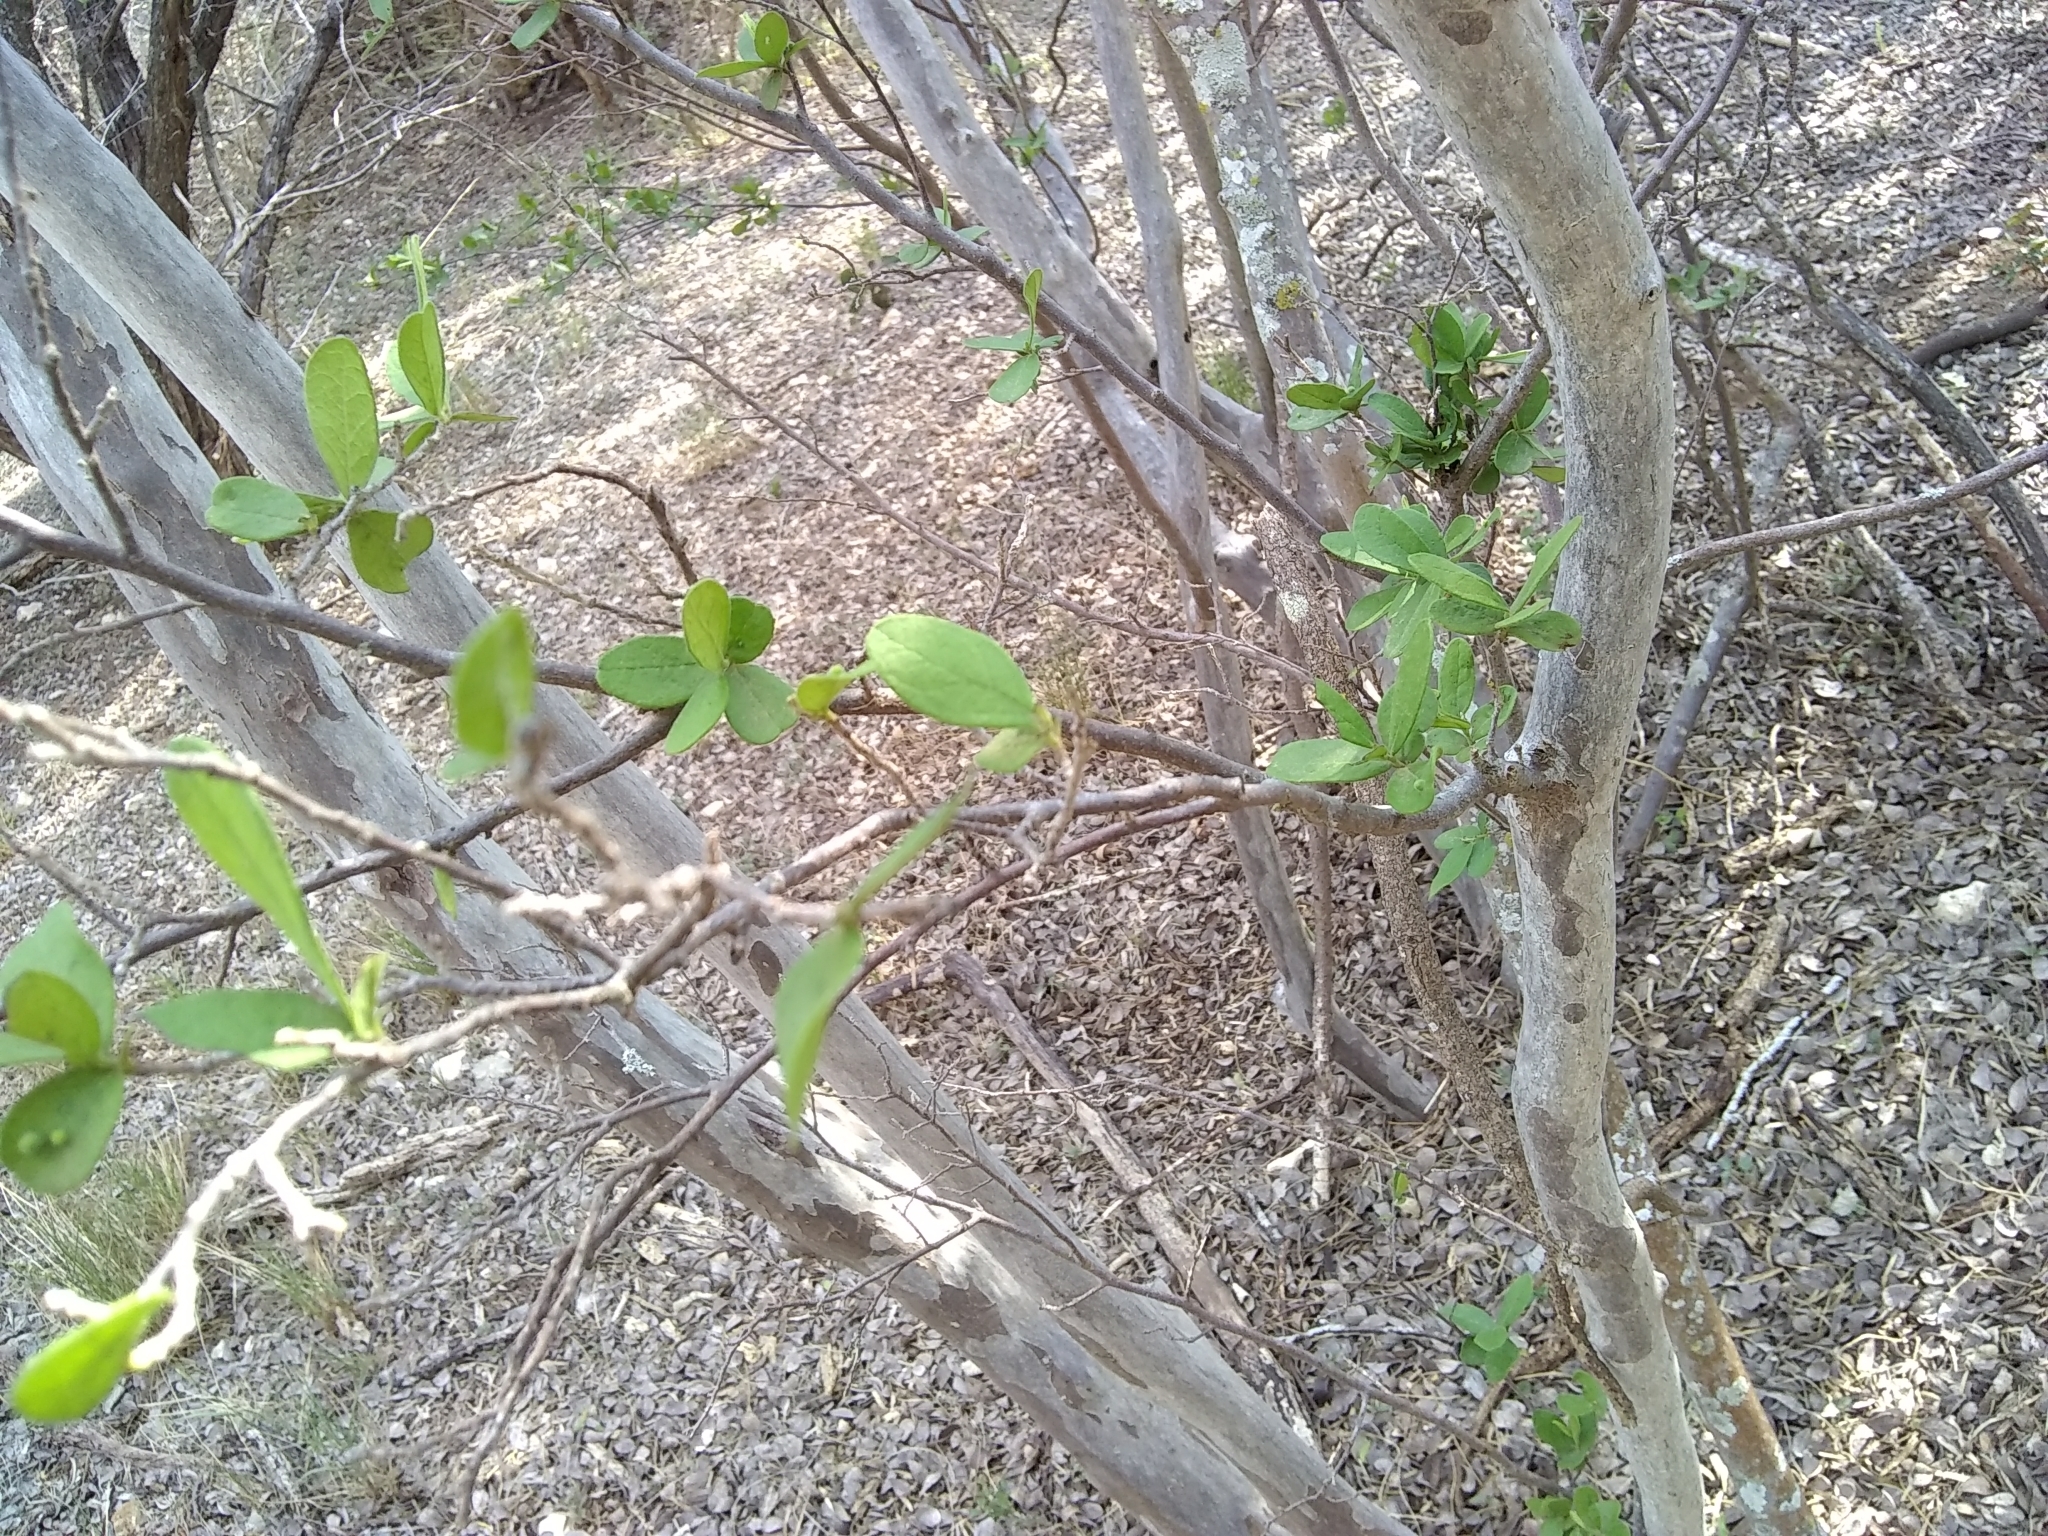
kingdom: Plantae
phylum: Tracheophyta
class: Magnoliopsida
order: Ericales
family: Ebenaceae
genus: Diospyros
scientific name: Diospyros texana
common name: Texas persimmon
